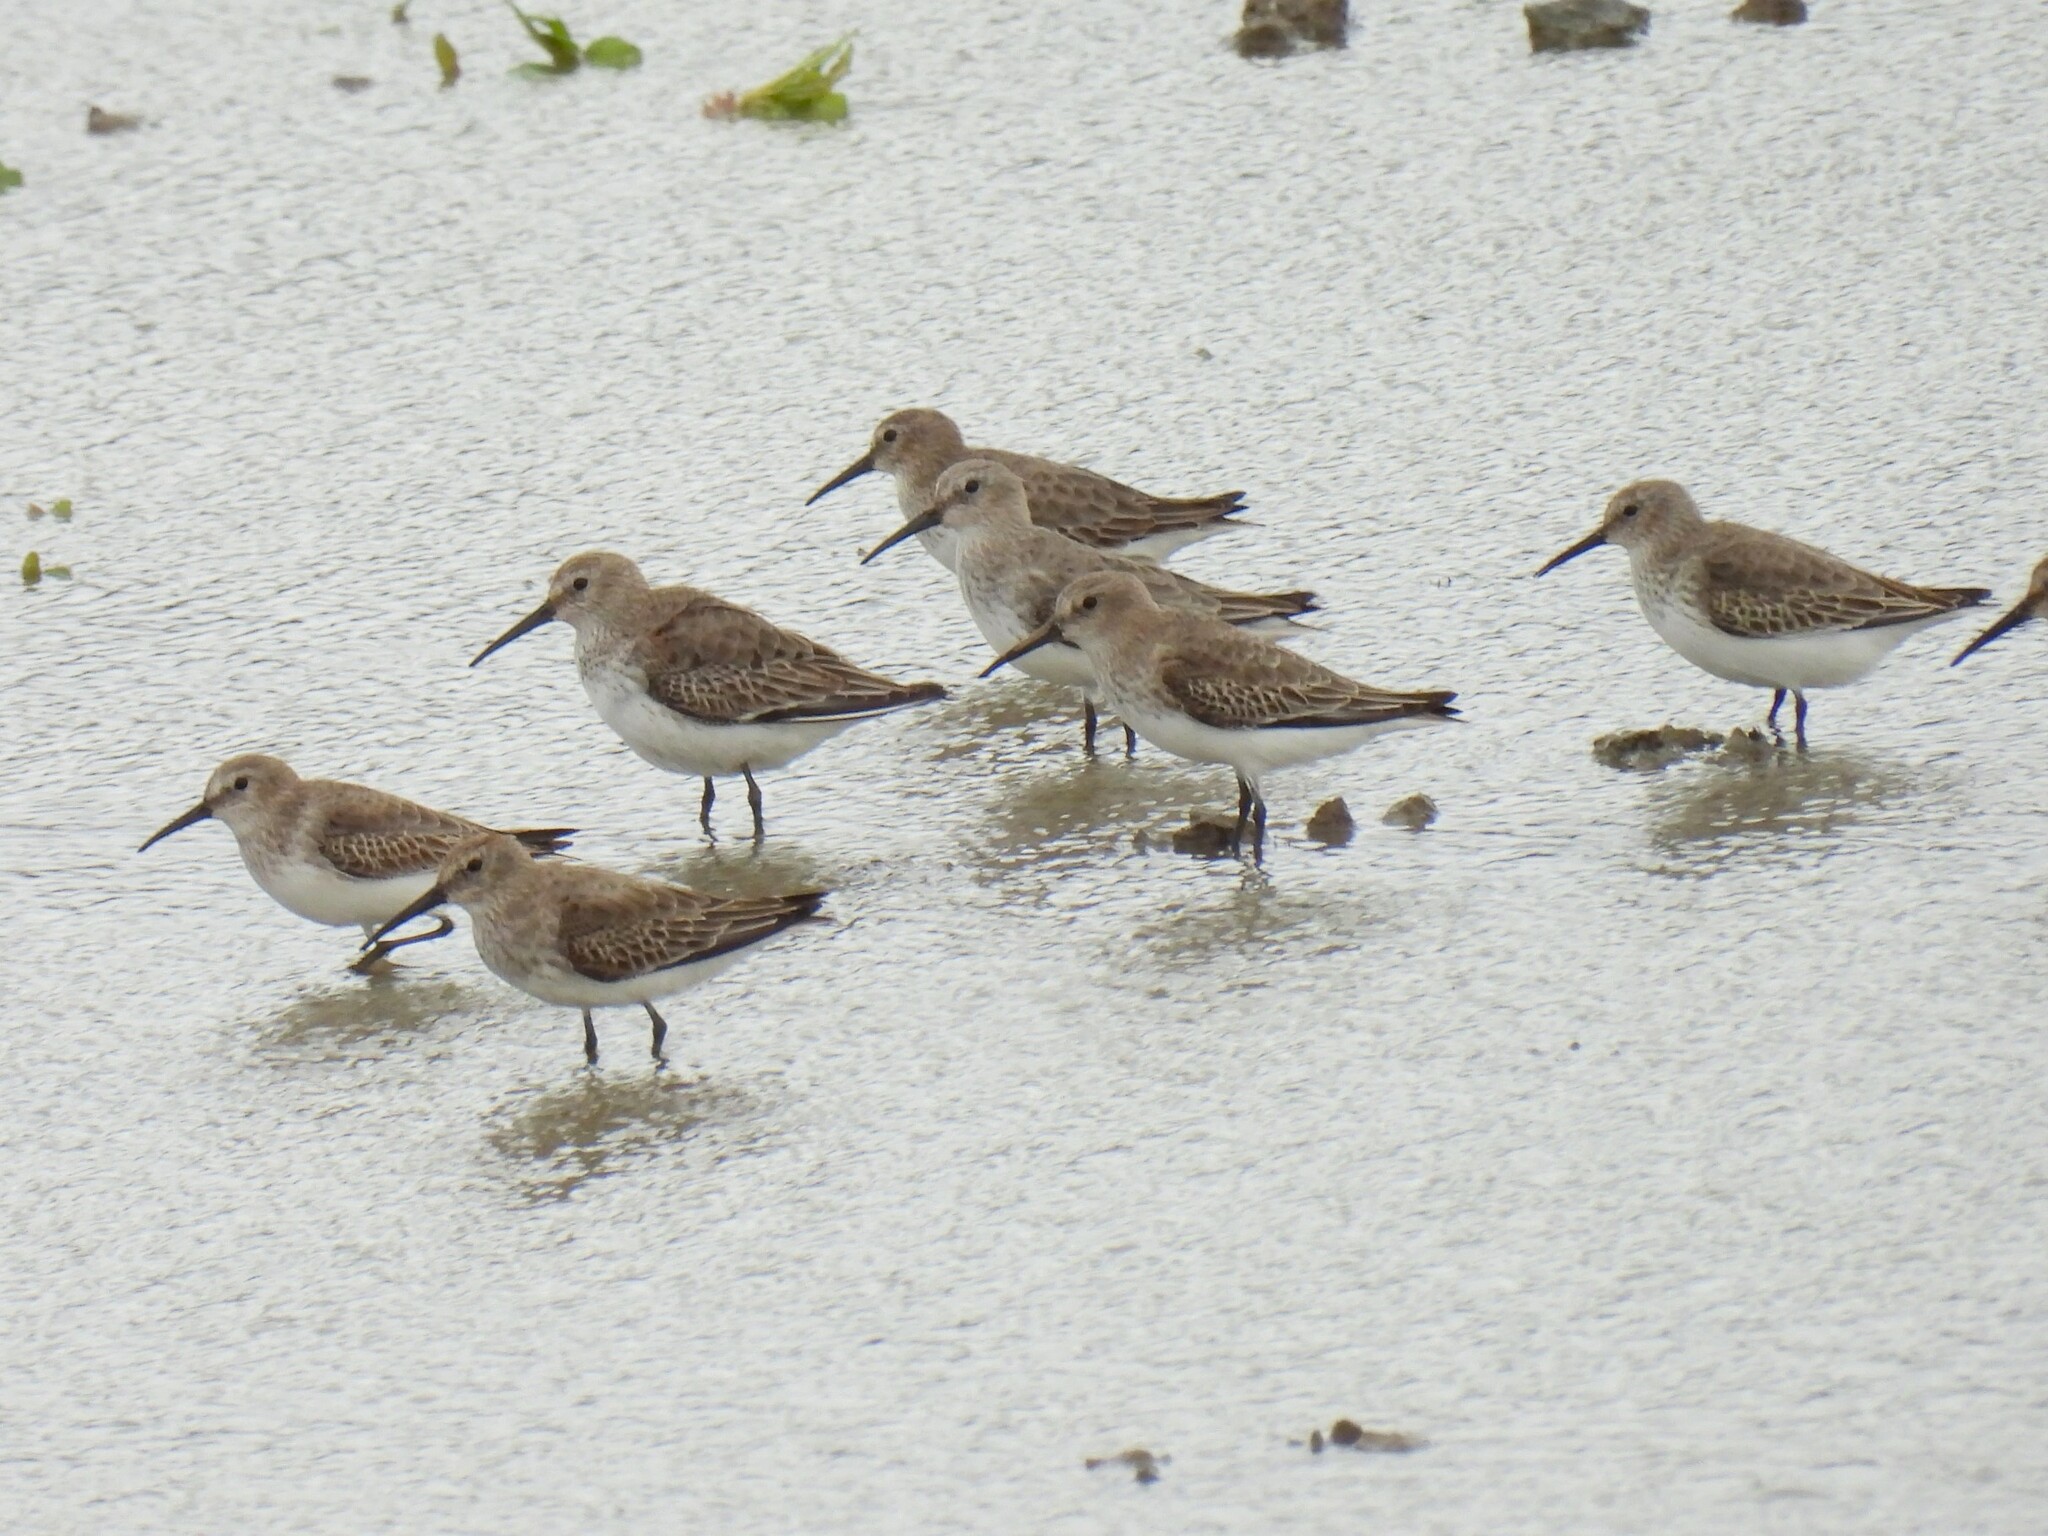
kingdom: Animalia
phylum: Chordata
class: Aves
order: Charadriiformes
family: Scolopacidae
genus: Calidris
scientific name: Calidris alpina
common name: Dunlin
